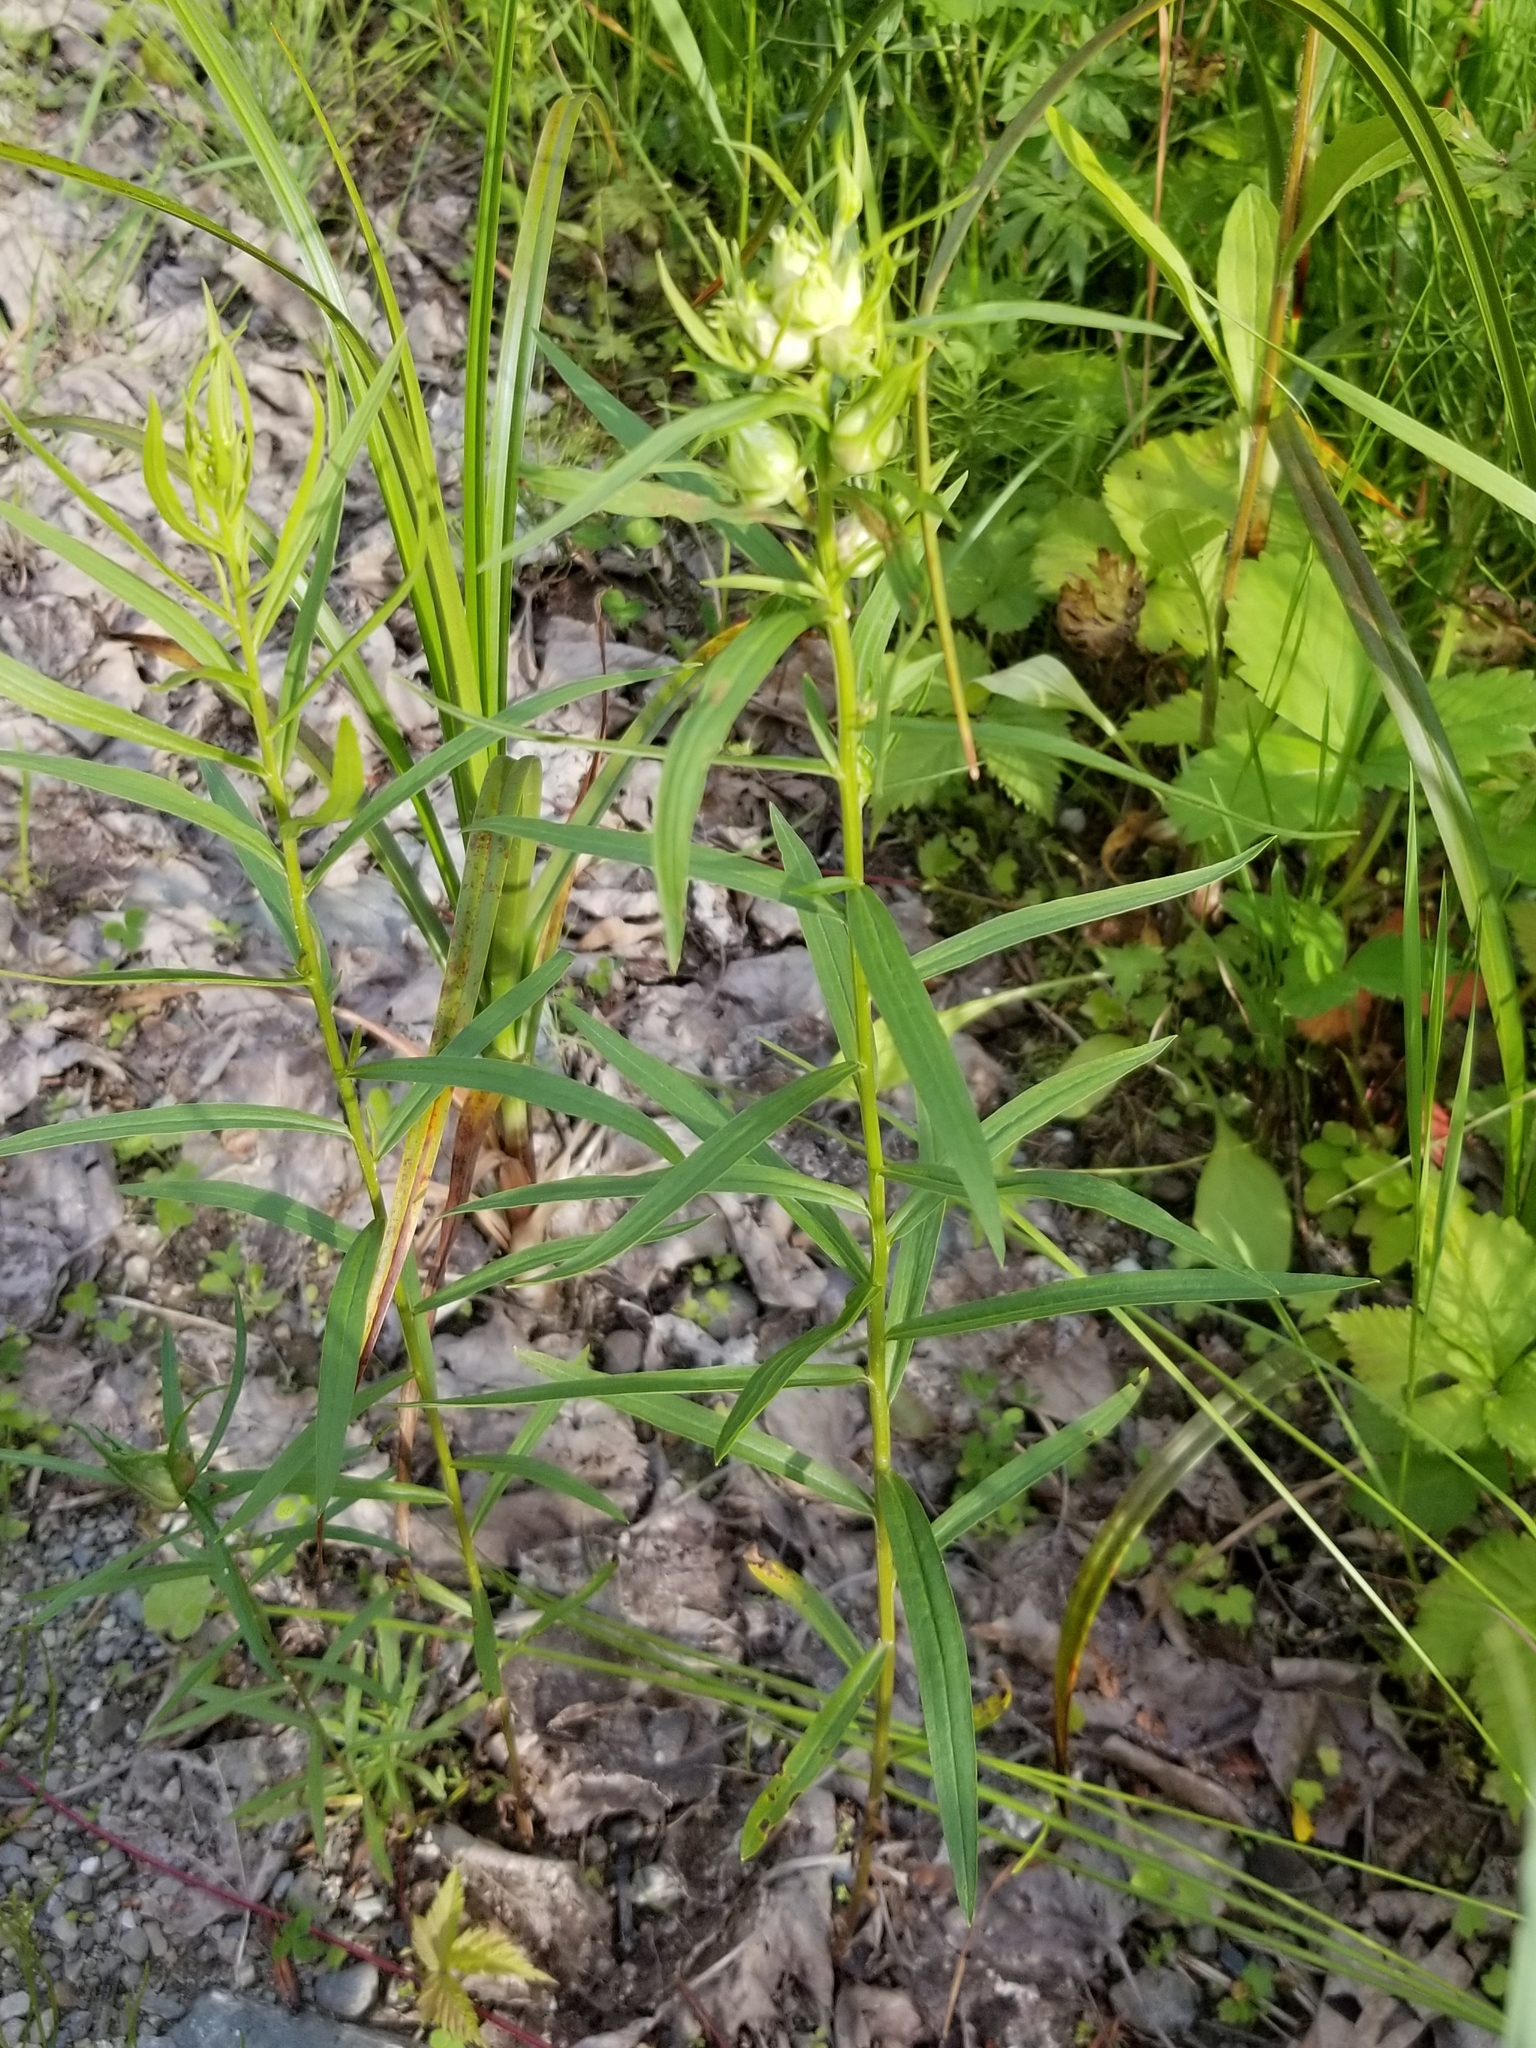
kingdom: Animalia
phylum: Arthropoda
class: Insecta
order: Diptera
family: Cecidomyiidae
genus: Rhopalomyia
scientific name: Rhopalomyia lobata
